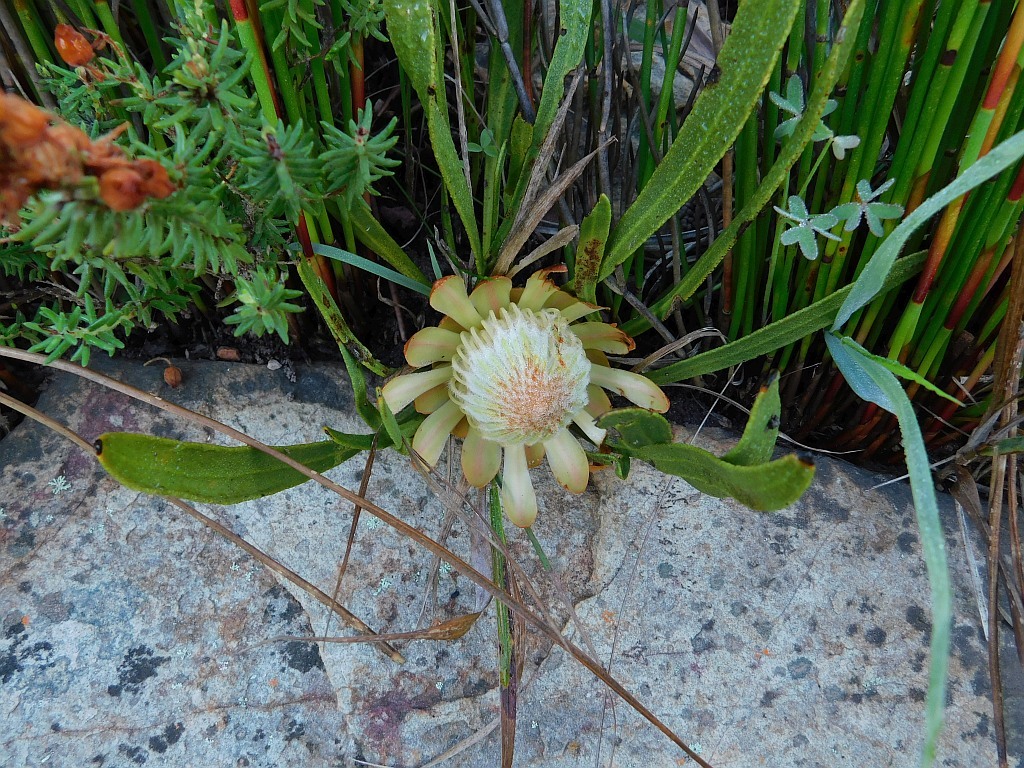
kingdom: Plantae
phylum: Tracheophyta
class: Magnoliopsida
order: Proteales
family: Proteaceae
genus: Protea
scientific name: Protea scabra
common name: Sandpaper-leaf sugarbush
